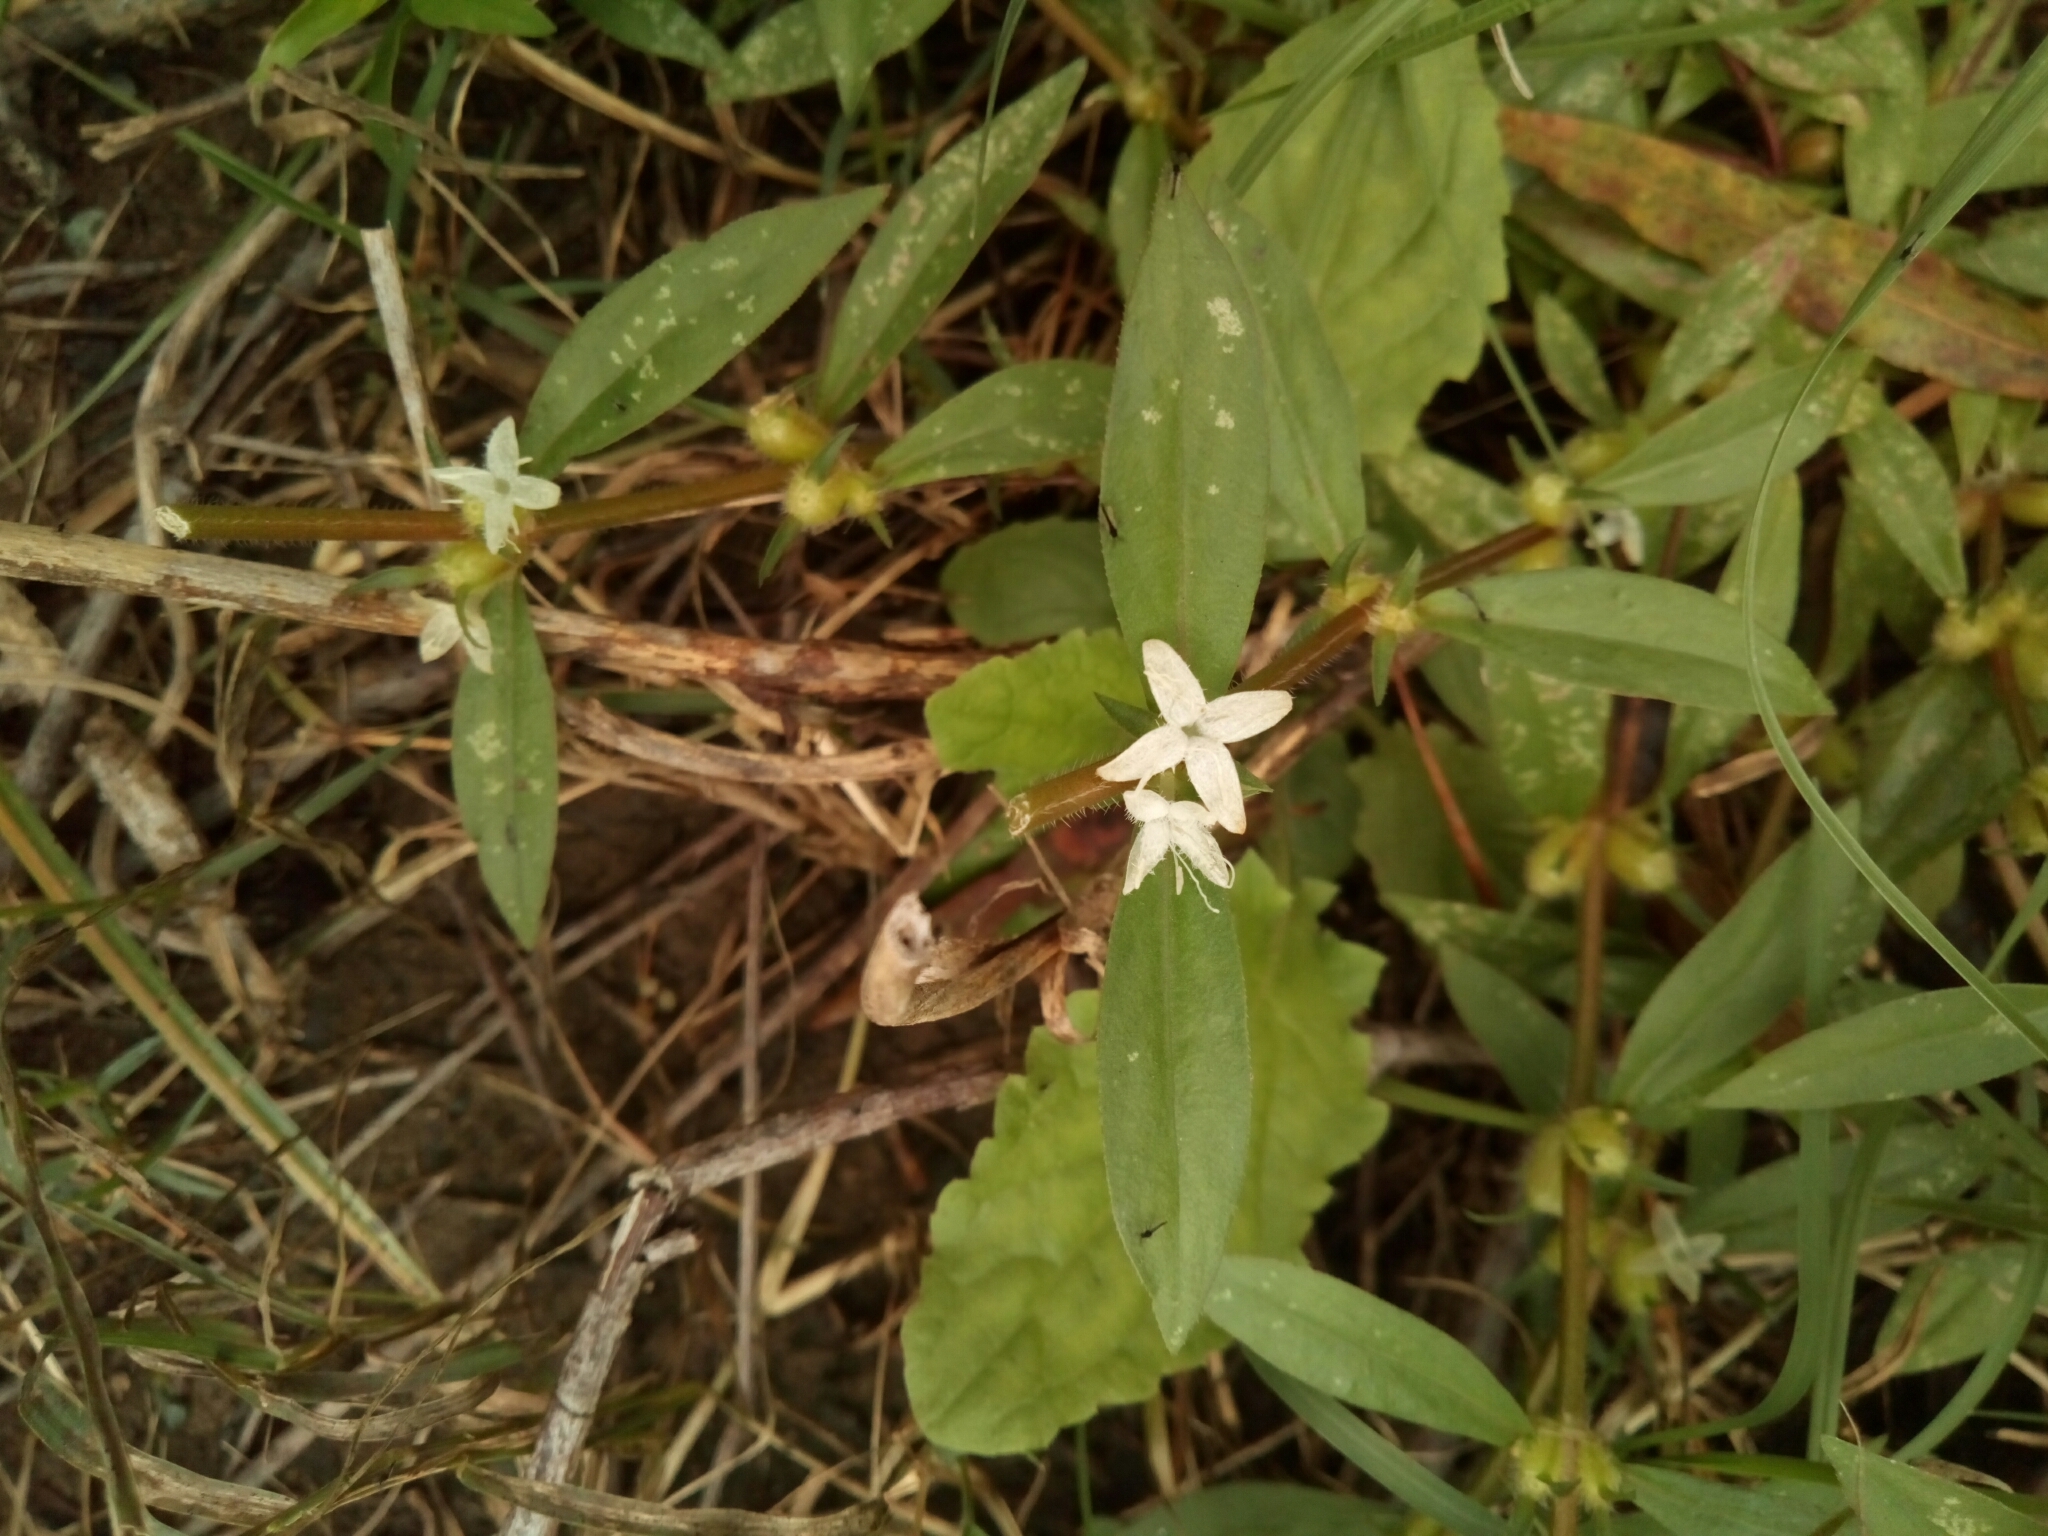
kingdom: Plantae
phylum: Tracheophyta
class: Magnoliopsida
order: Gentianales
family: Rubiaceae
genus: Diodia
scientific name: Diodia virginiana
